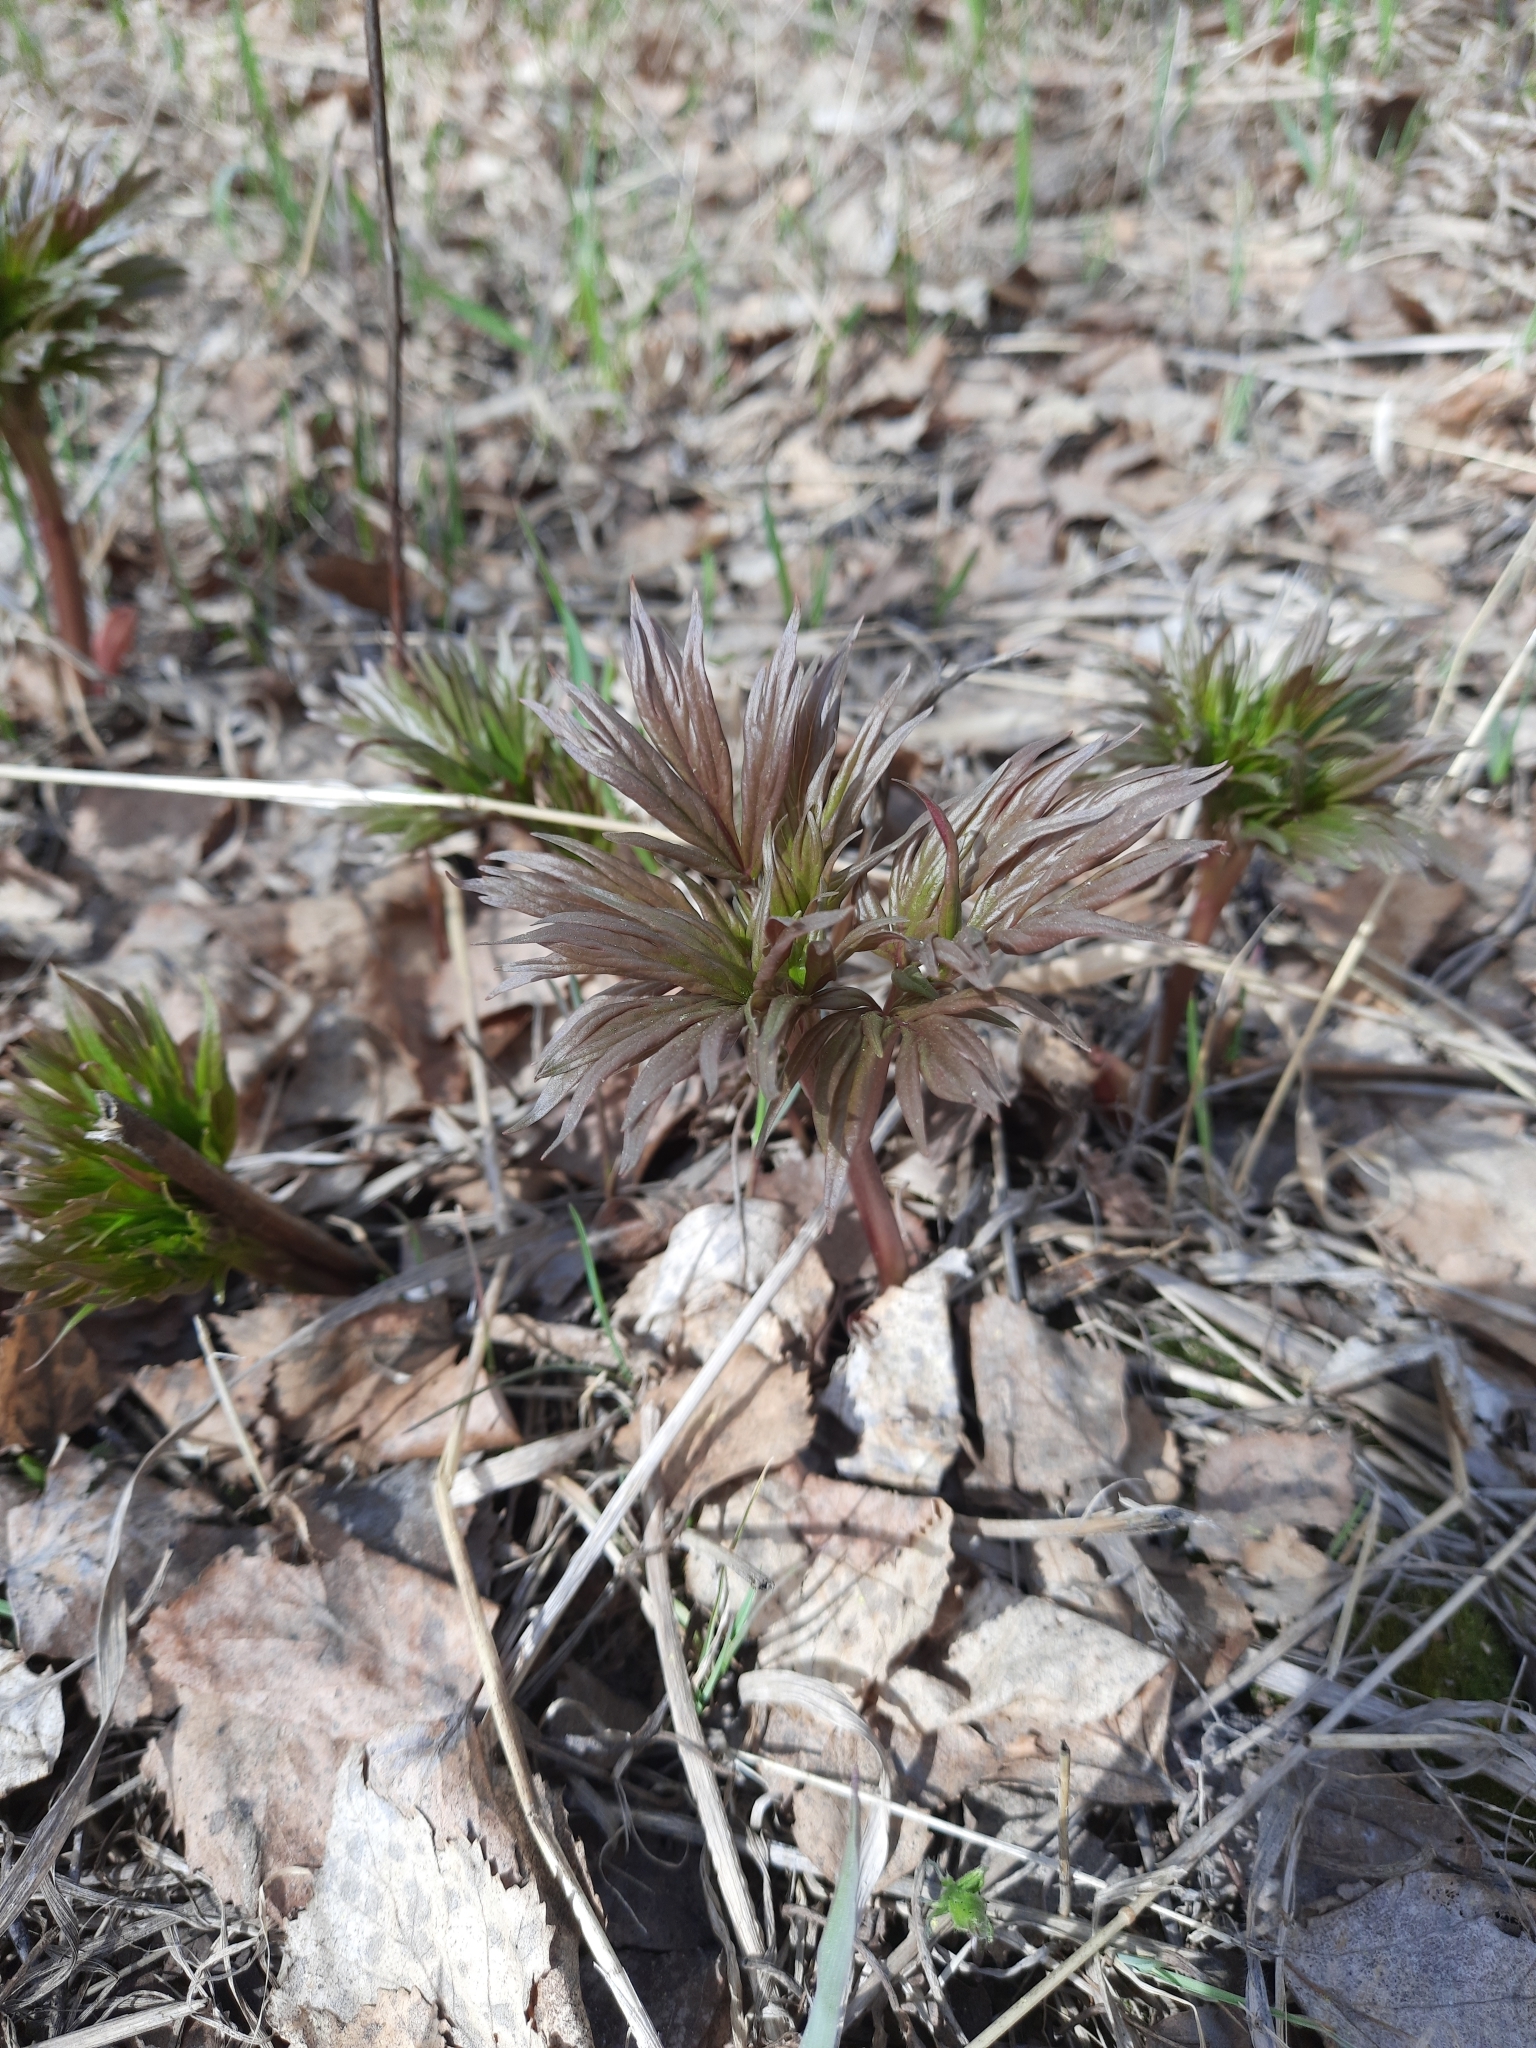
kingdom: Plantae
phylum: Tracheophyta
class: Magnoliopsida
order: Saxifragales
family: Paeoniaceae
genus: Paeonia
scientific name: Paeonia anomala
